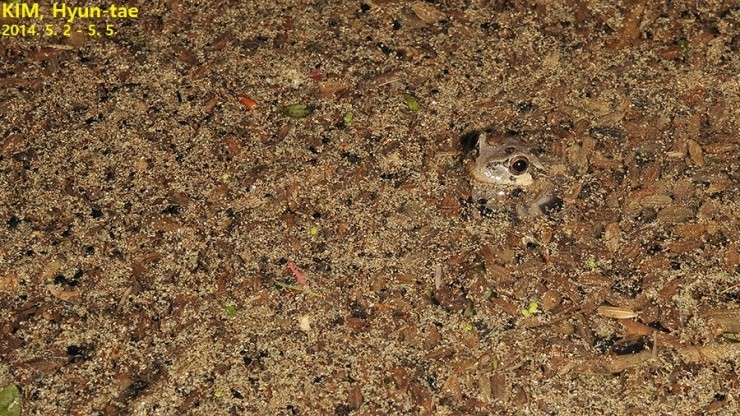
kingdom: Animalia
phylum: Chordata
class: Amphibia
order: Anura
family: Hylidae
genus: Dryophytes
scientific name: Dryophytes japonicus
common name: Japanese treefrog
